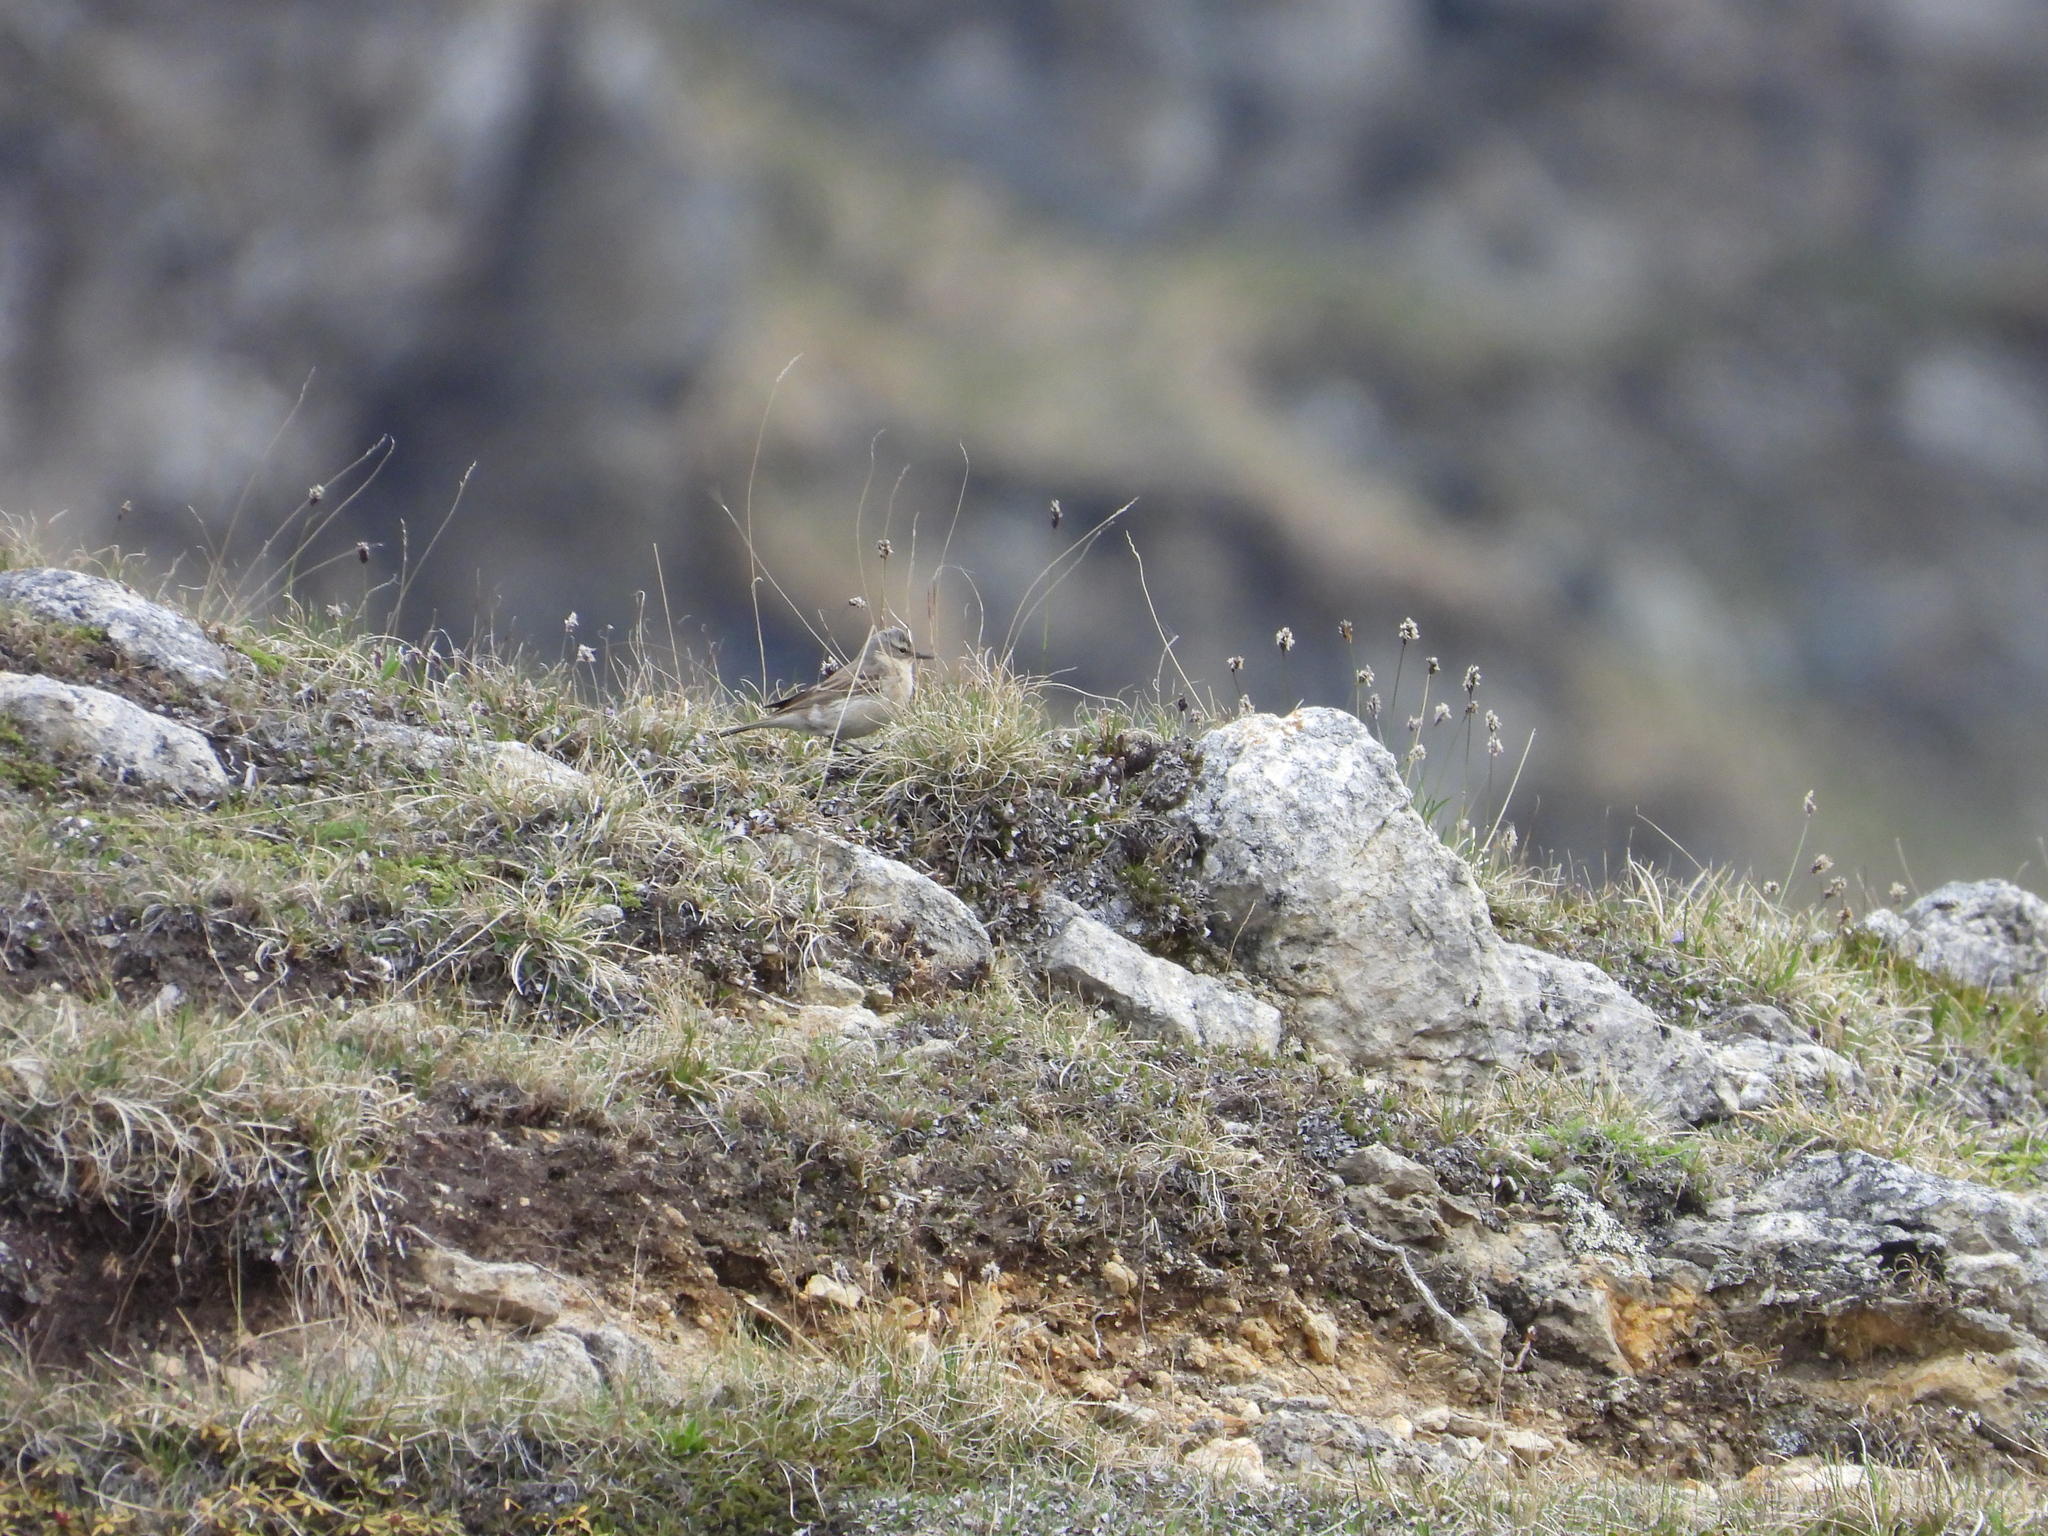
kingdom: Animalia
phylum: Chordata
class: Aves
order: Passeriformes
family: Motacillidae
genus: Anthus
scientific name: Anthus spinoletta
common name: Water pipit
